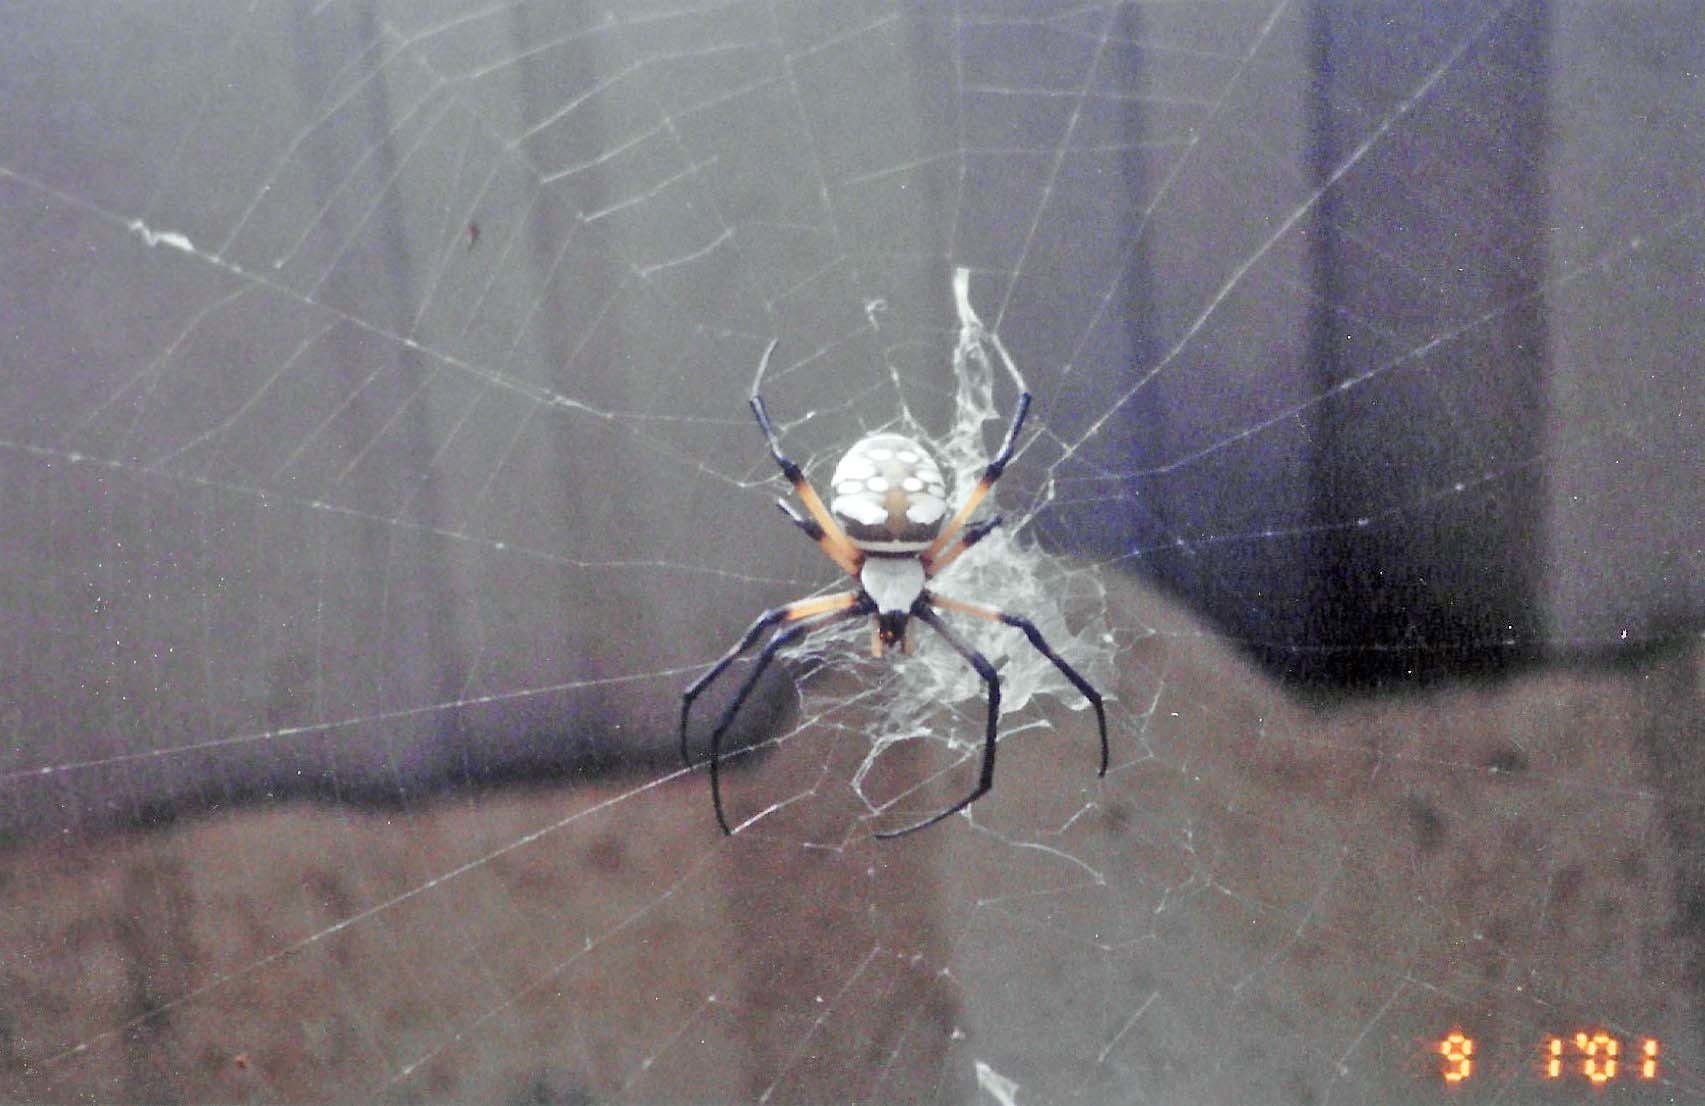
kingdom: Animalia
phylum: Arthropoda
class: Arachnida
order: Araneae
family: Araneidae
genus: Argiope
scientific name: Argiope aurantia
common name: Orb weavers
